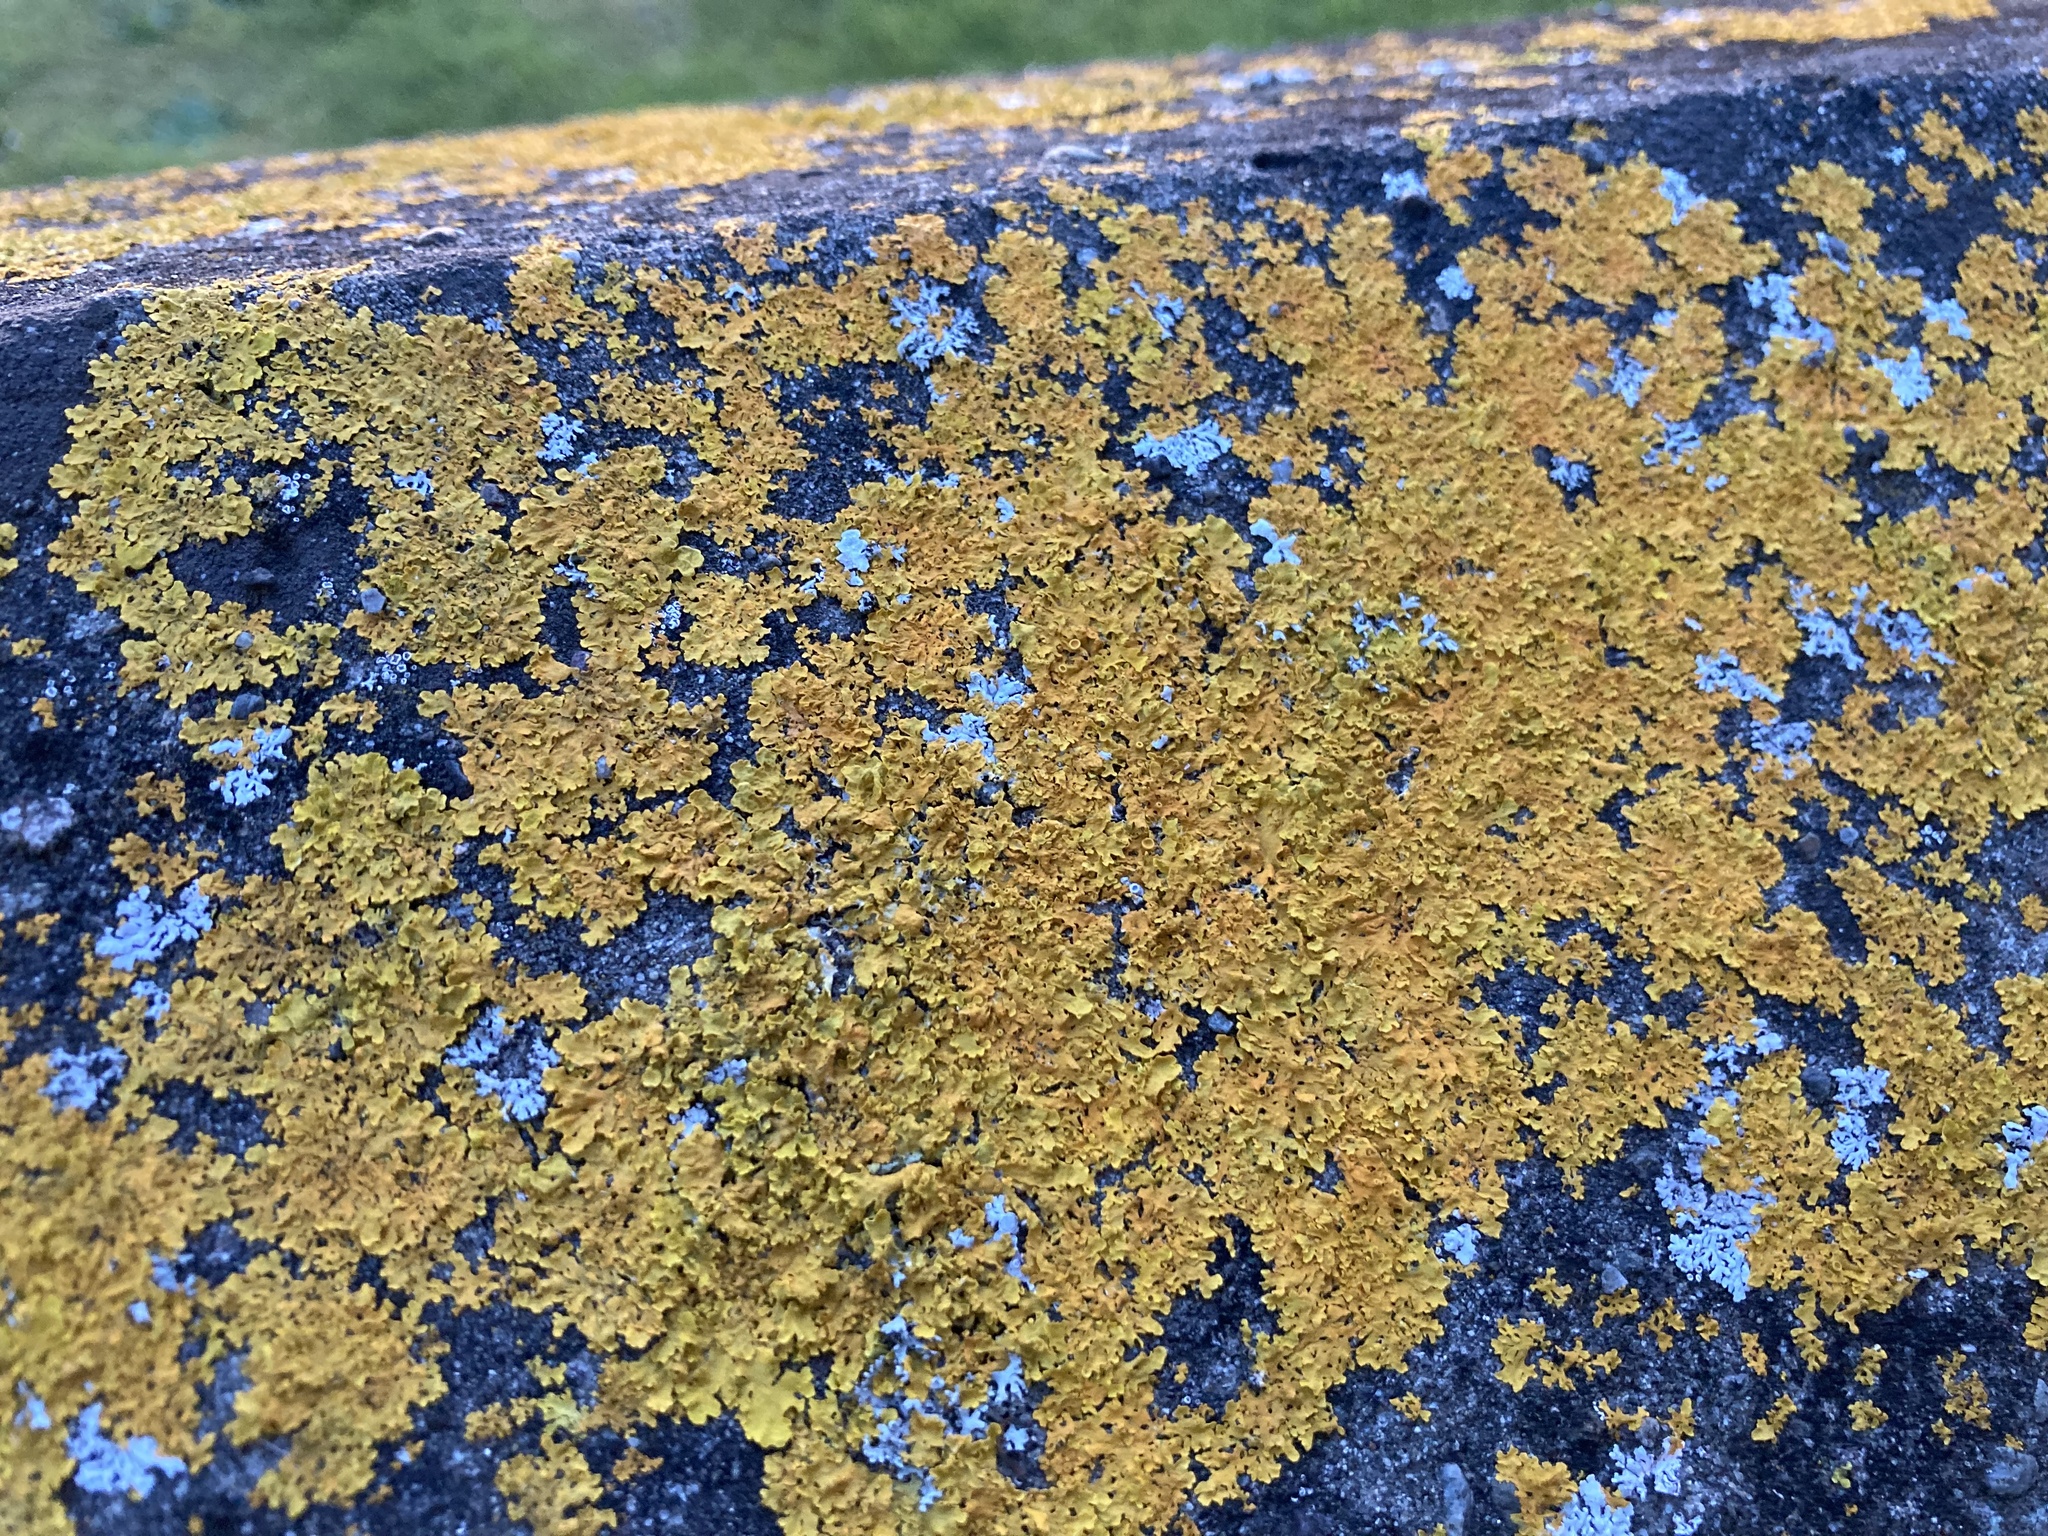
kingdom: Fungi
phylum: Ascomycota
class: Lecanoromycetes
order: Teloschistales
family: Teloschistaceae
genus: Xanthoria
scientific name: Xanthoria parietina
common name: Common orange lichen
